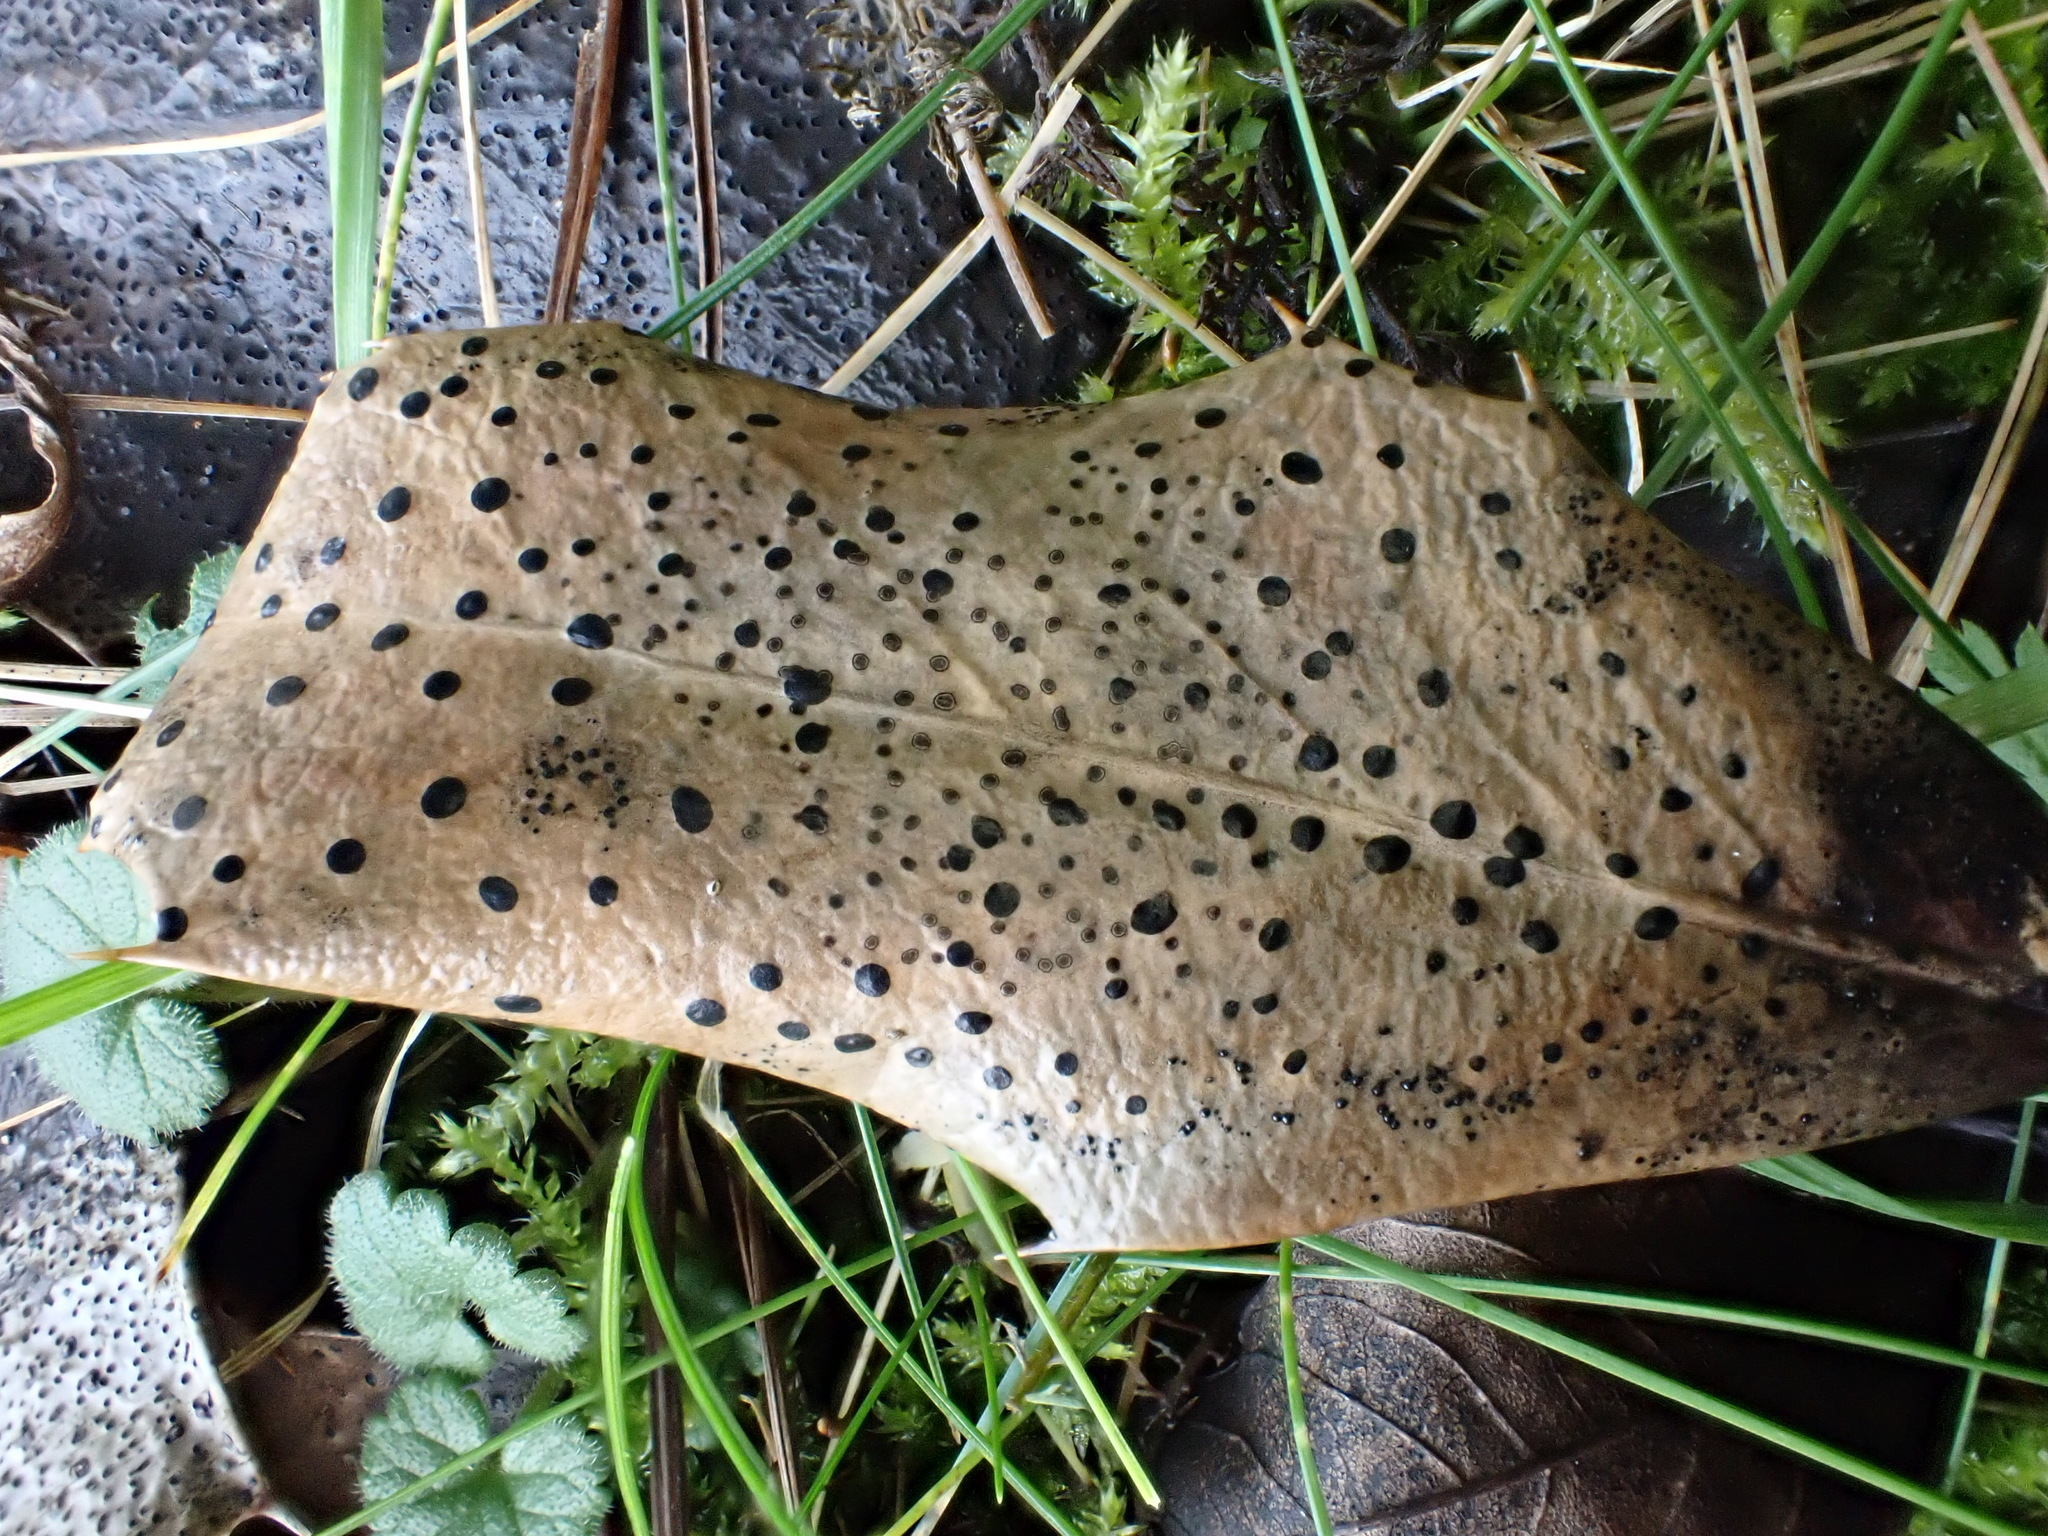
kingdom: Fungi
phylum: Ascomycota
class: Leotiomycetes
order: Helotiales
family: Cenangiaceae
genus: Trochila
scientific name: Trochila ilicina
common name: Holly speckle
